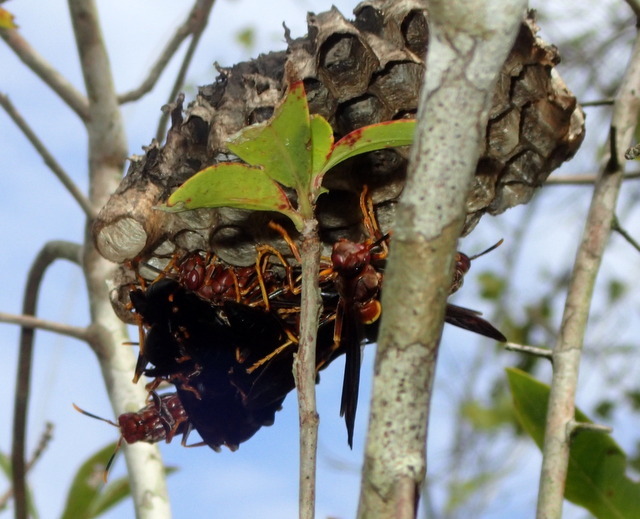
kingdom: Animalia
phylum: Arthropoda
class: Insecta
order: Hymenoptera
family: Eumenidae
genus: Polistes
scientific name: Polistes annularis
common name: Ringed paper wasp
